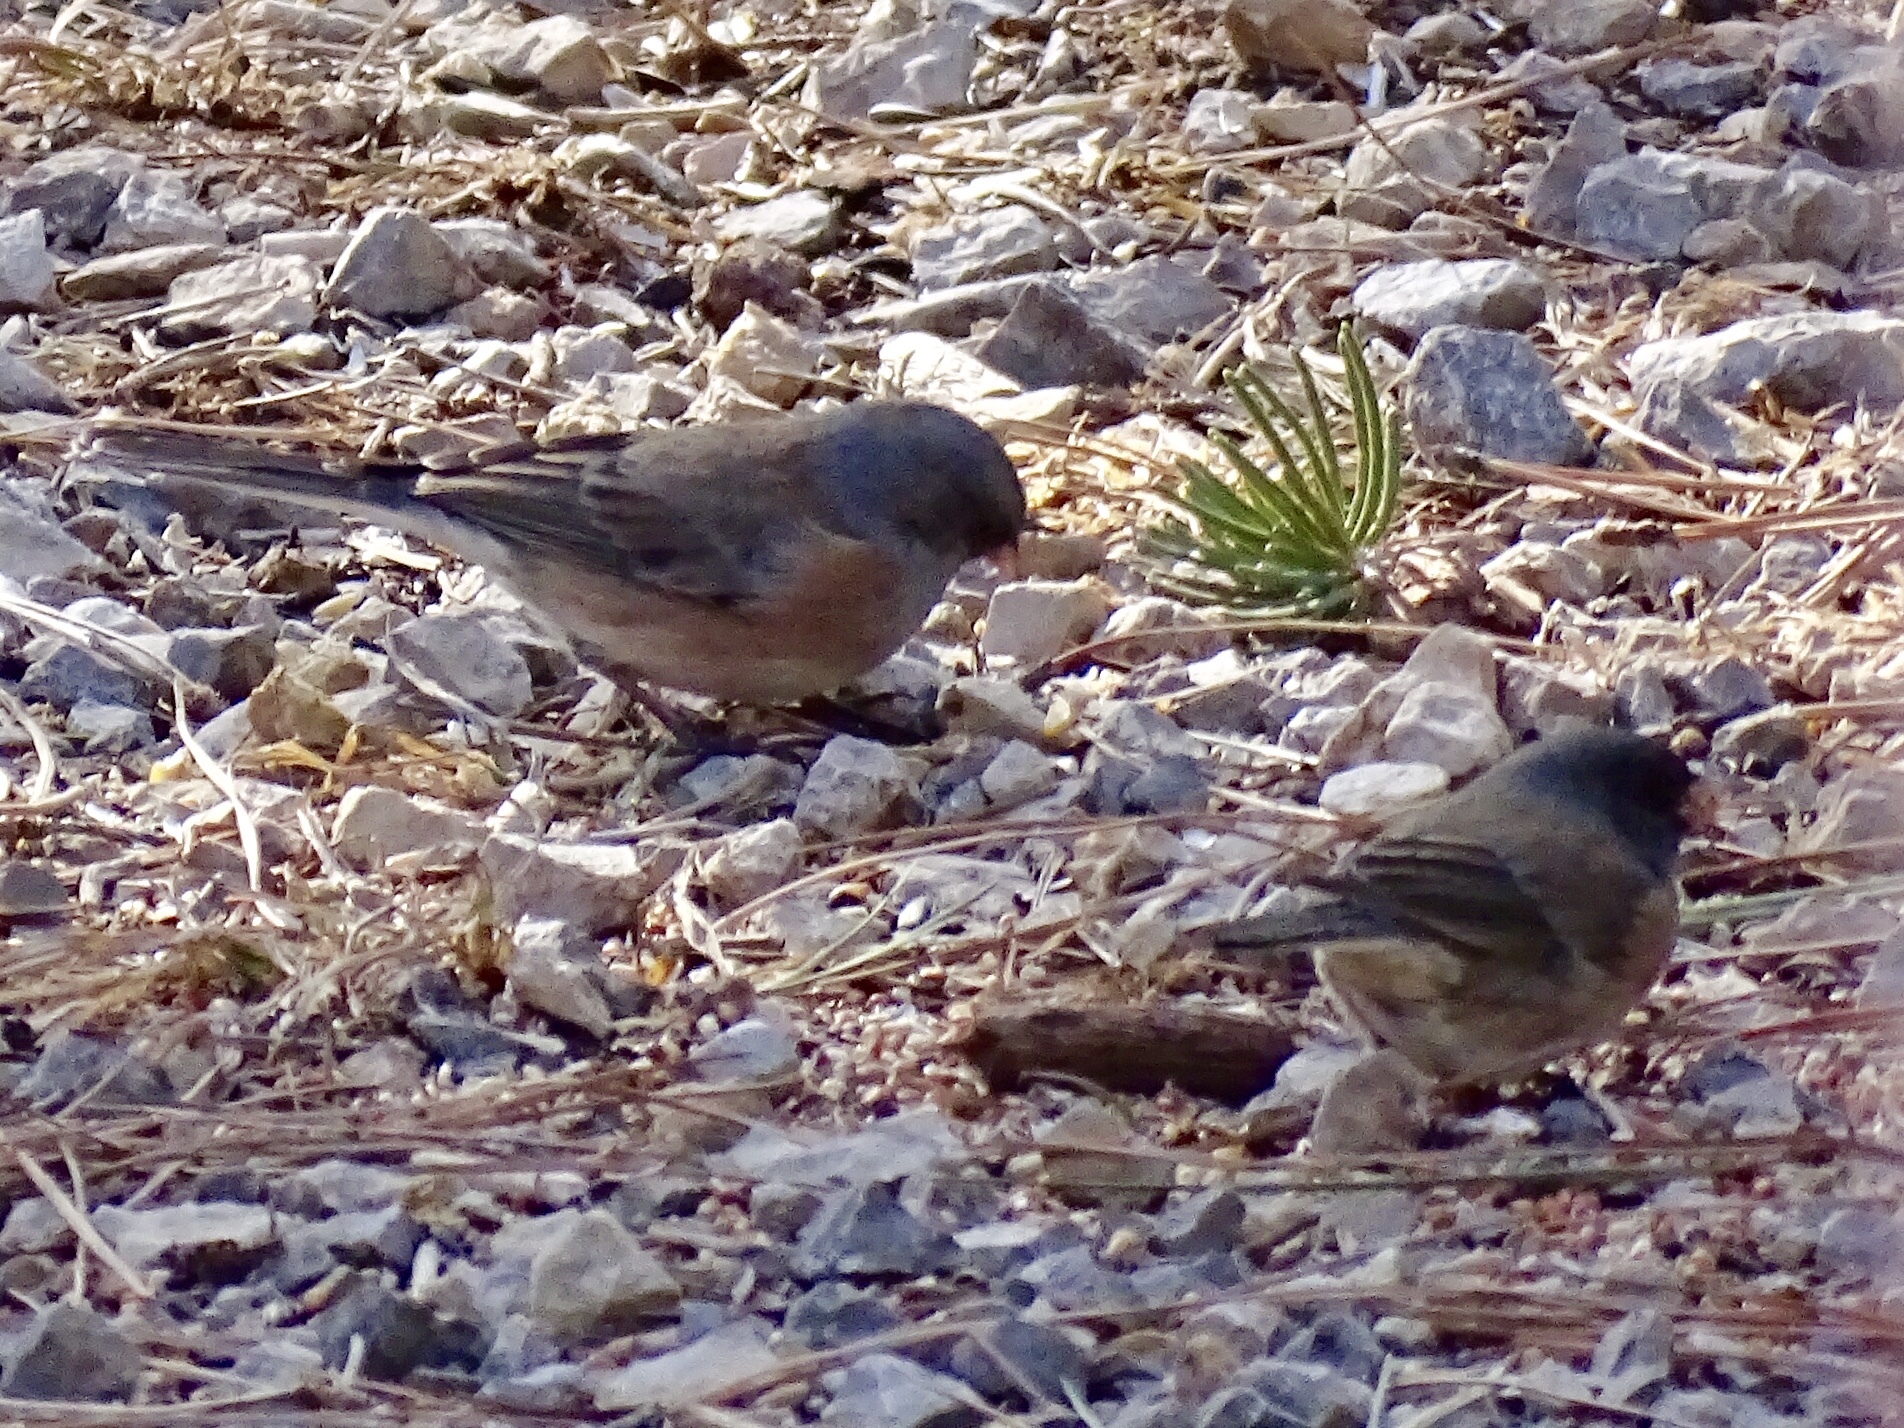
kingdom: Animalia
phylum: Chordata
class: Aves
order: Passeriformes
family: Passerellidae
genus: Junco
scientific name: Junco hyemalis
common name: Dark-eyed junco
